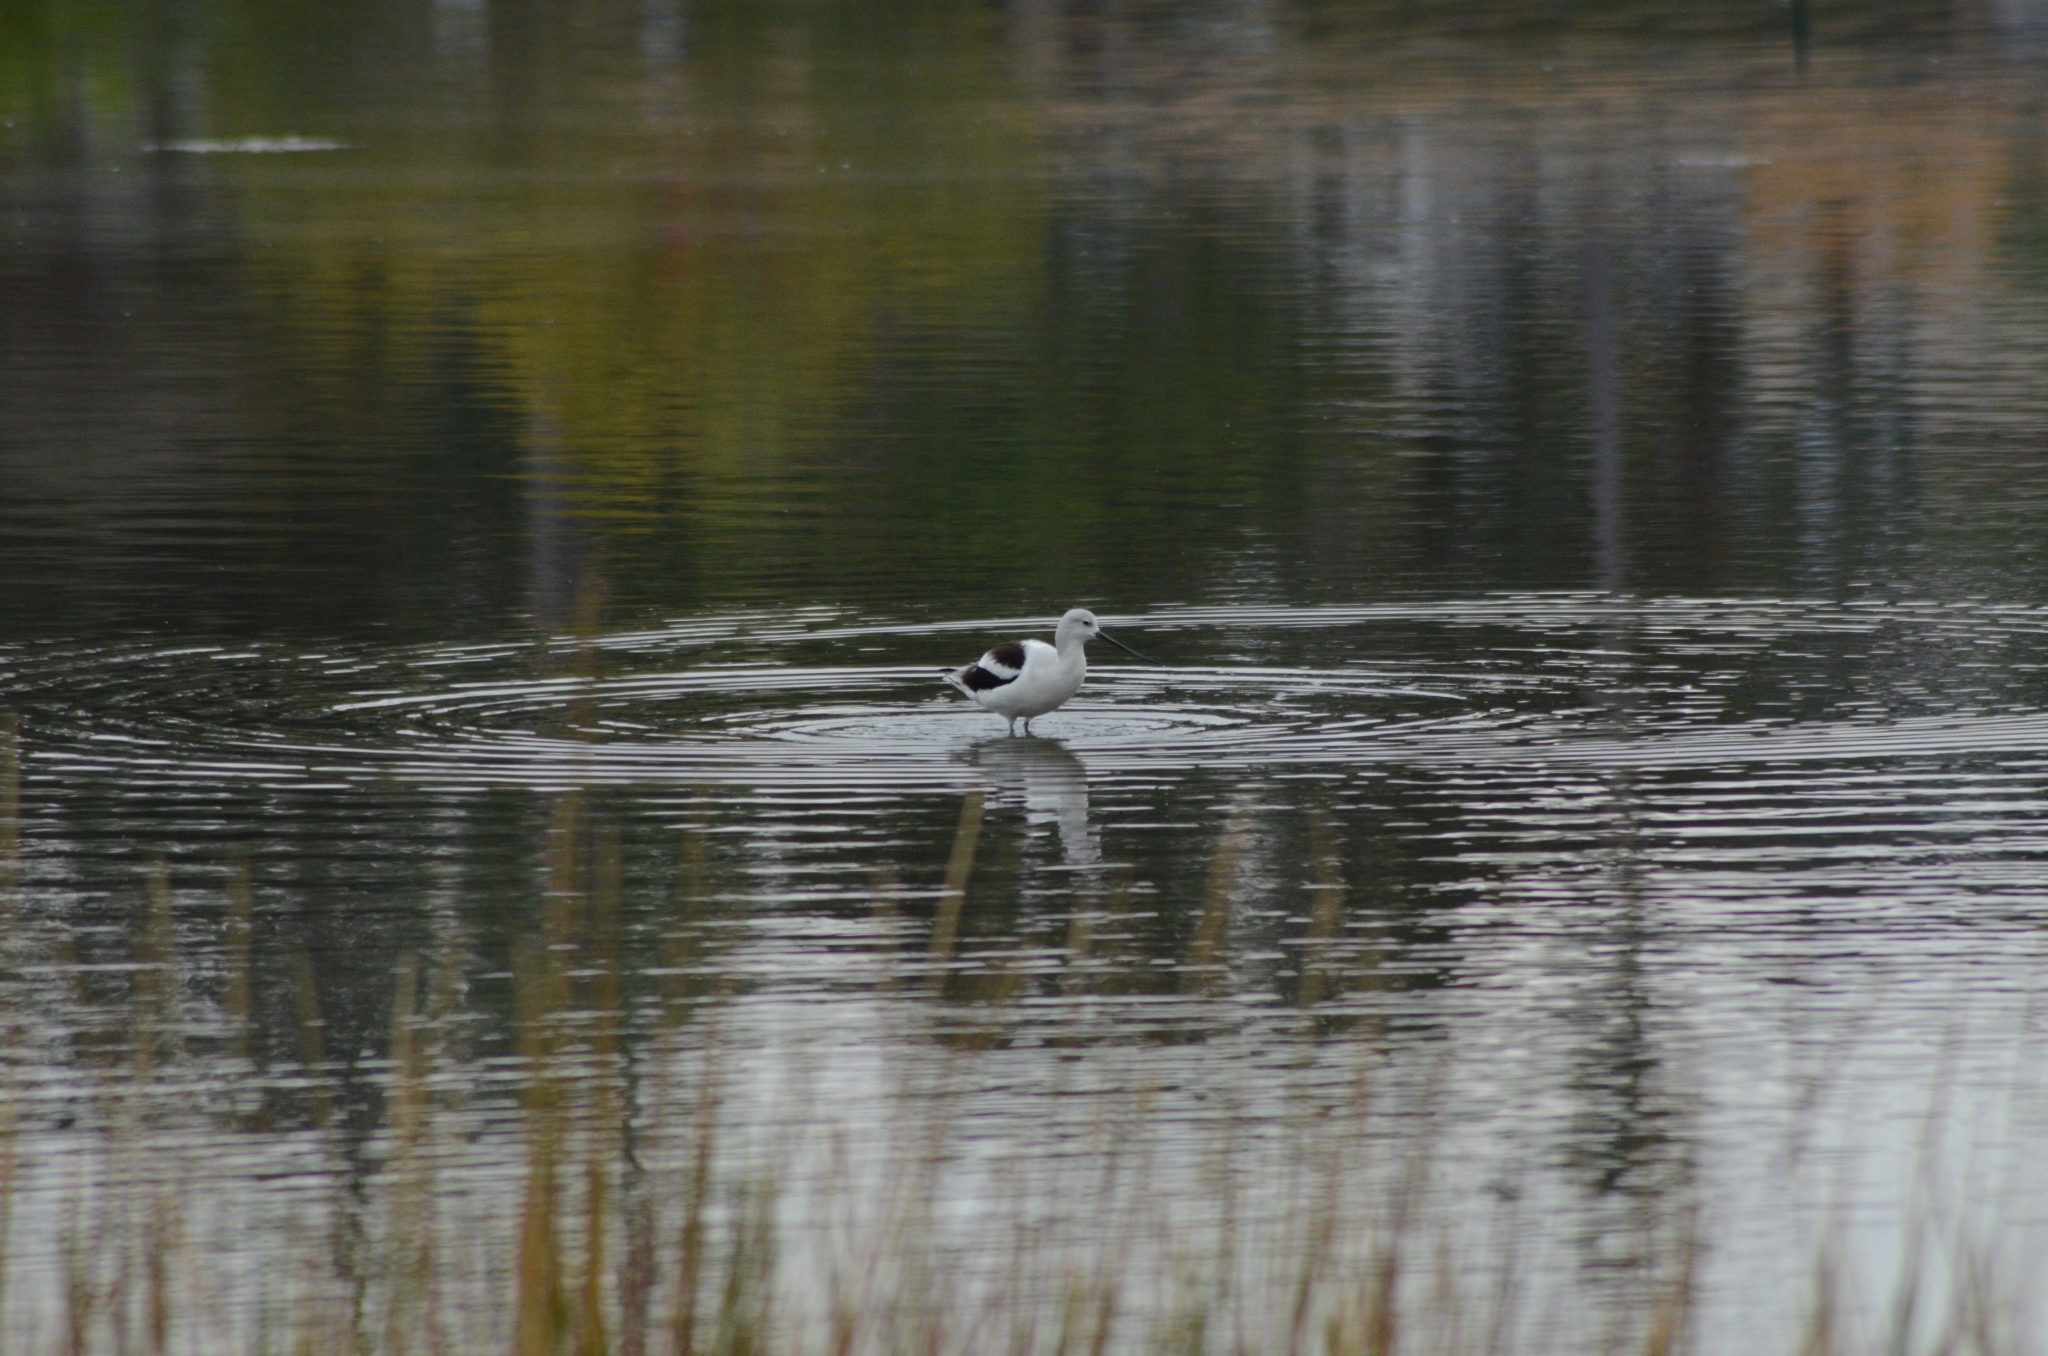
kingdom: Animalia
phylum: Chordata
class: Aves
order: Charadriiformes
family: Recurvirostridae
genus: Recurvirostra
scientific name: Recurvirostra americana
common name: American avocet
